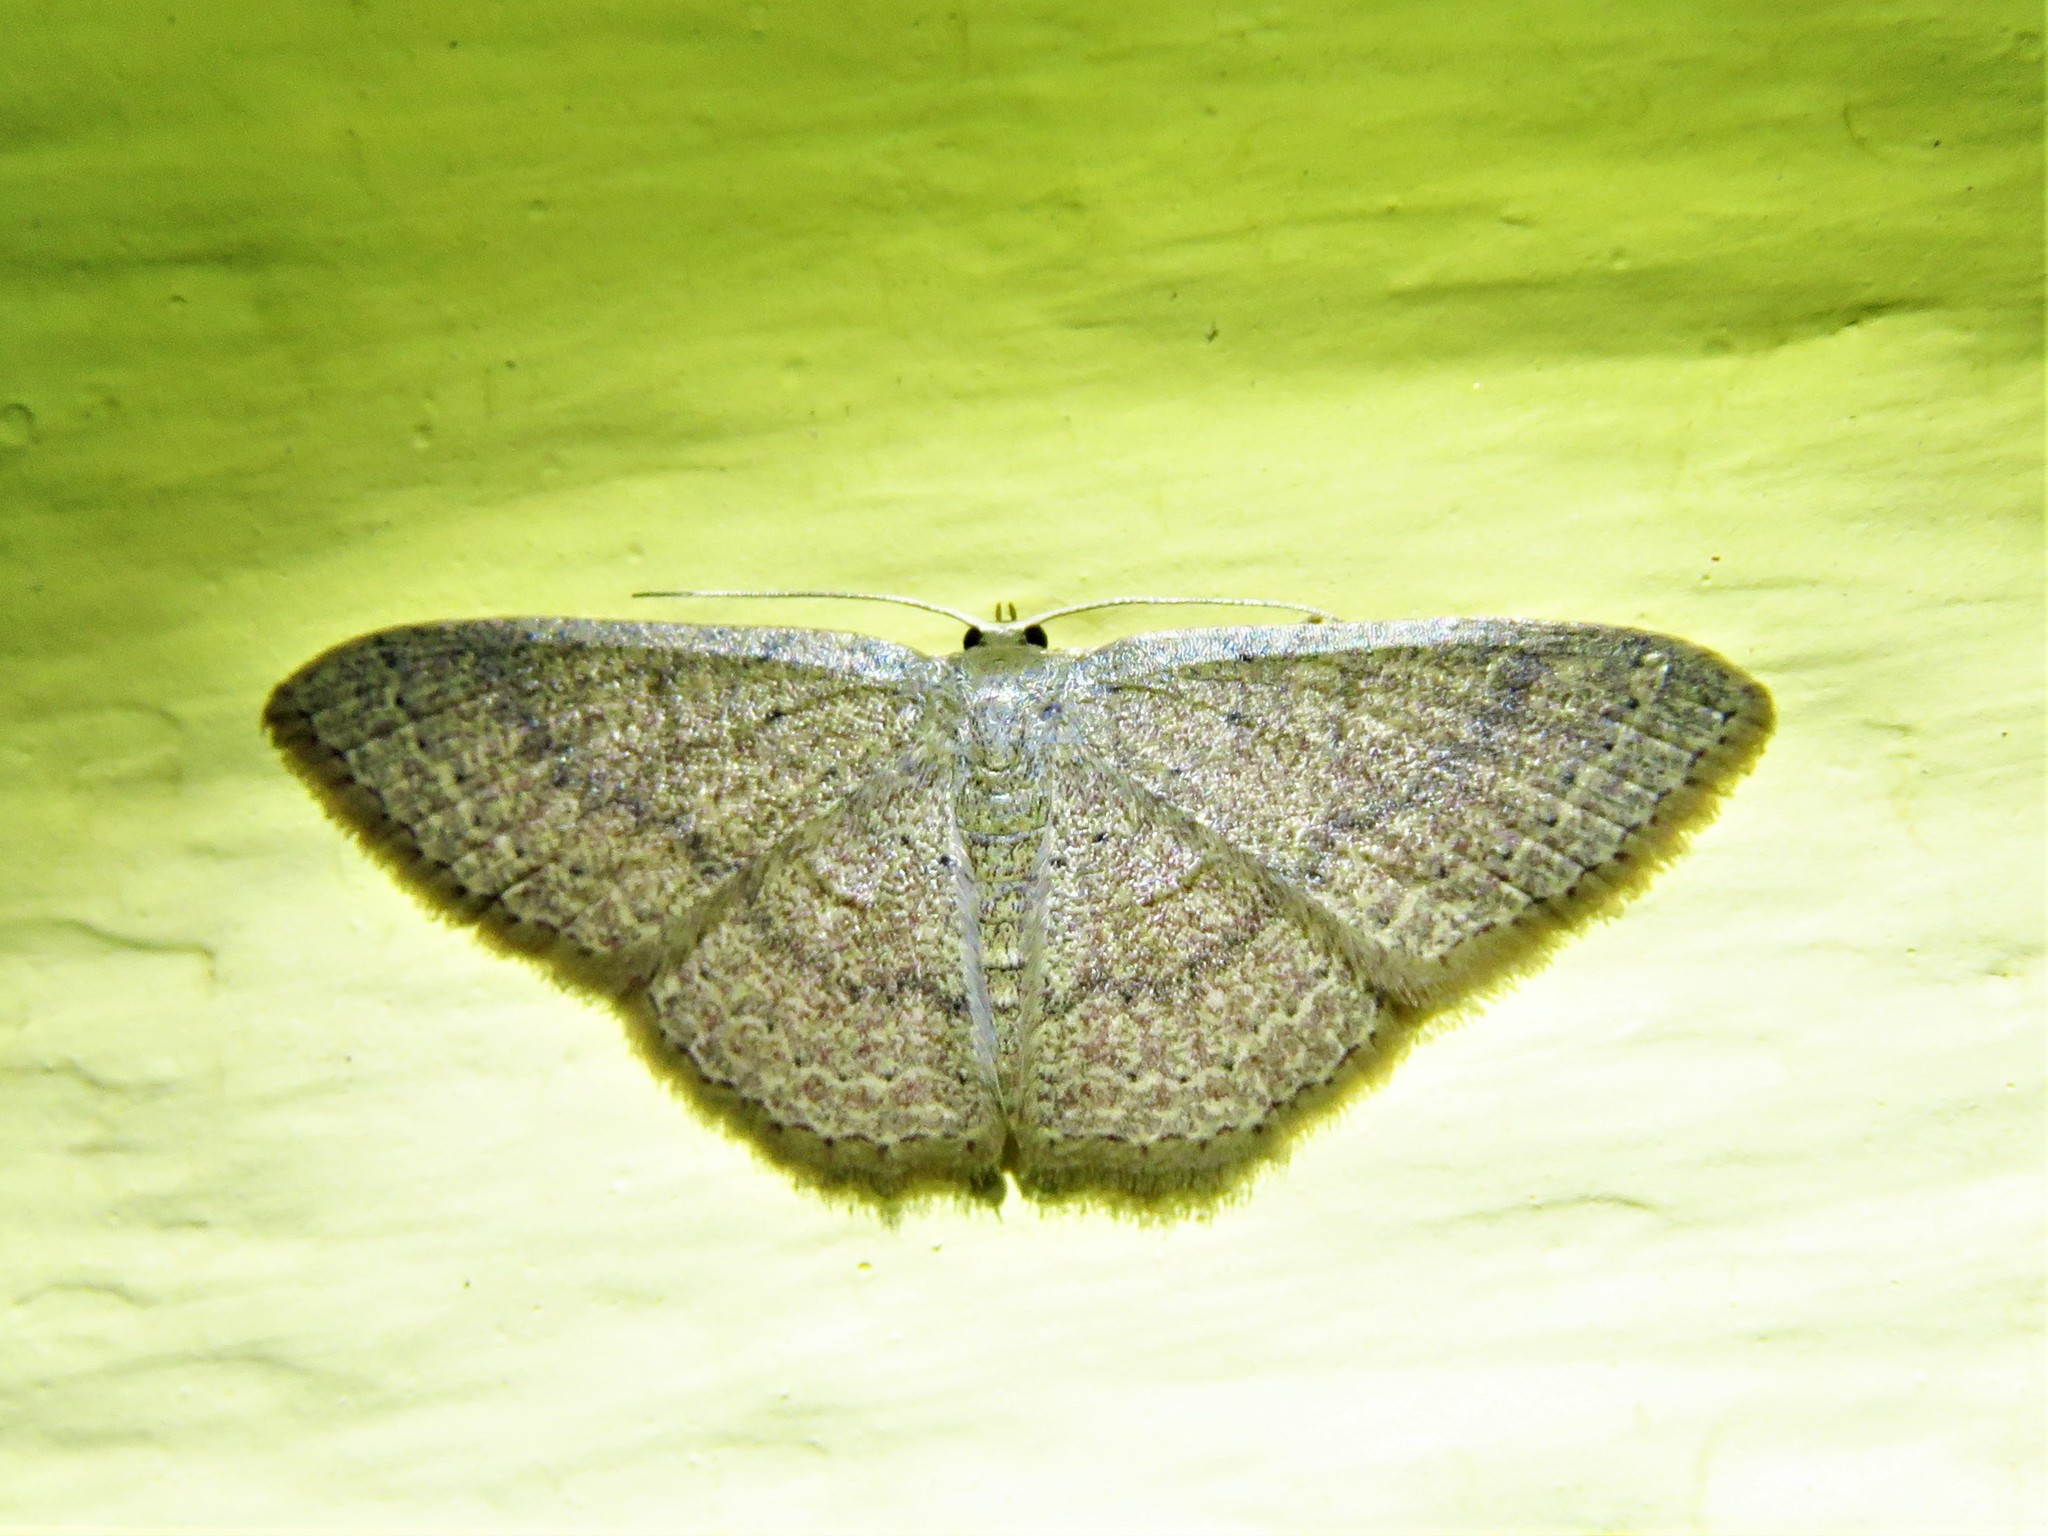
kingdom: Animalia
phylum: Arthropoda
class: Insecta
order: Lepidoptera
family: Geometridae
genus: Pleuroprucha
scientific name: Pleuroprucha insulsaria
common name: Common tan wave
